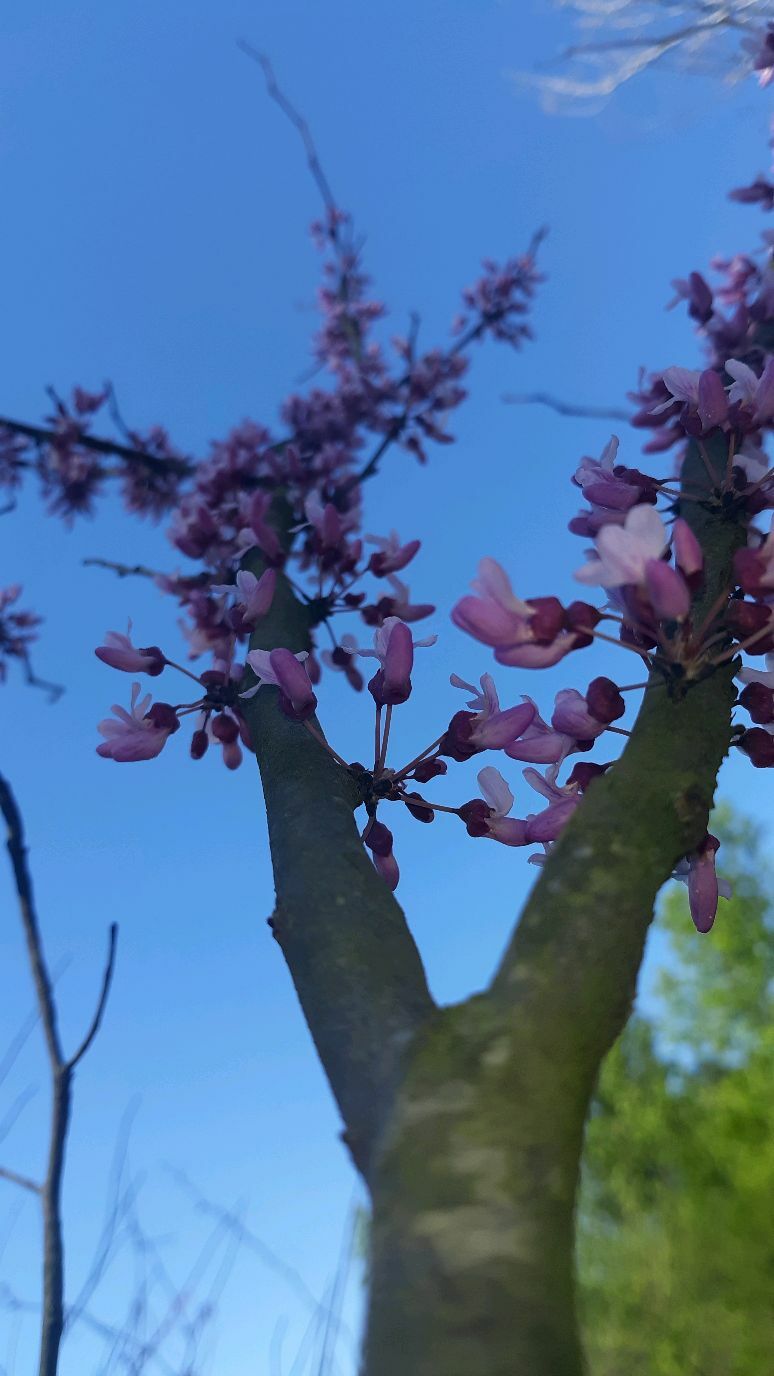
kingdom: Plantae
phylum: Tracheophyta
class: Magnoliopsida
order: Fabales
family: Fabaceae
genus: Cercis
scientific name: Cercis canadensis
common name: Eastern redbud
